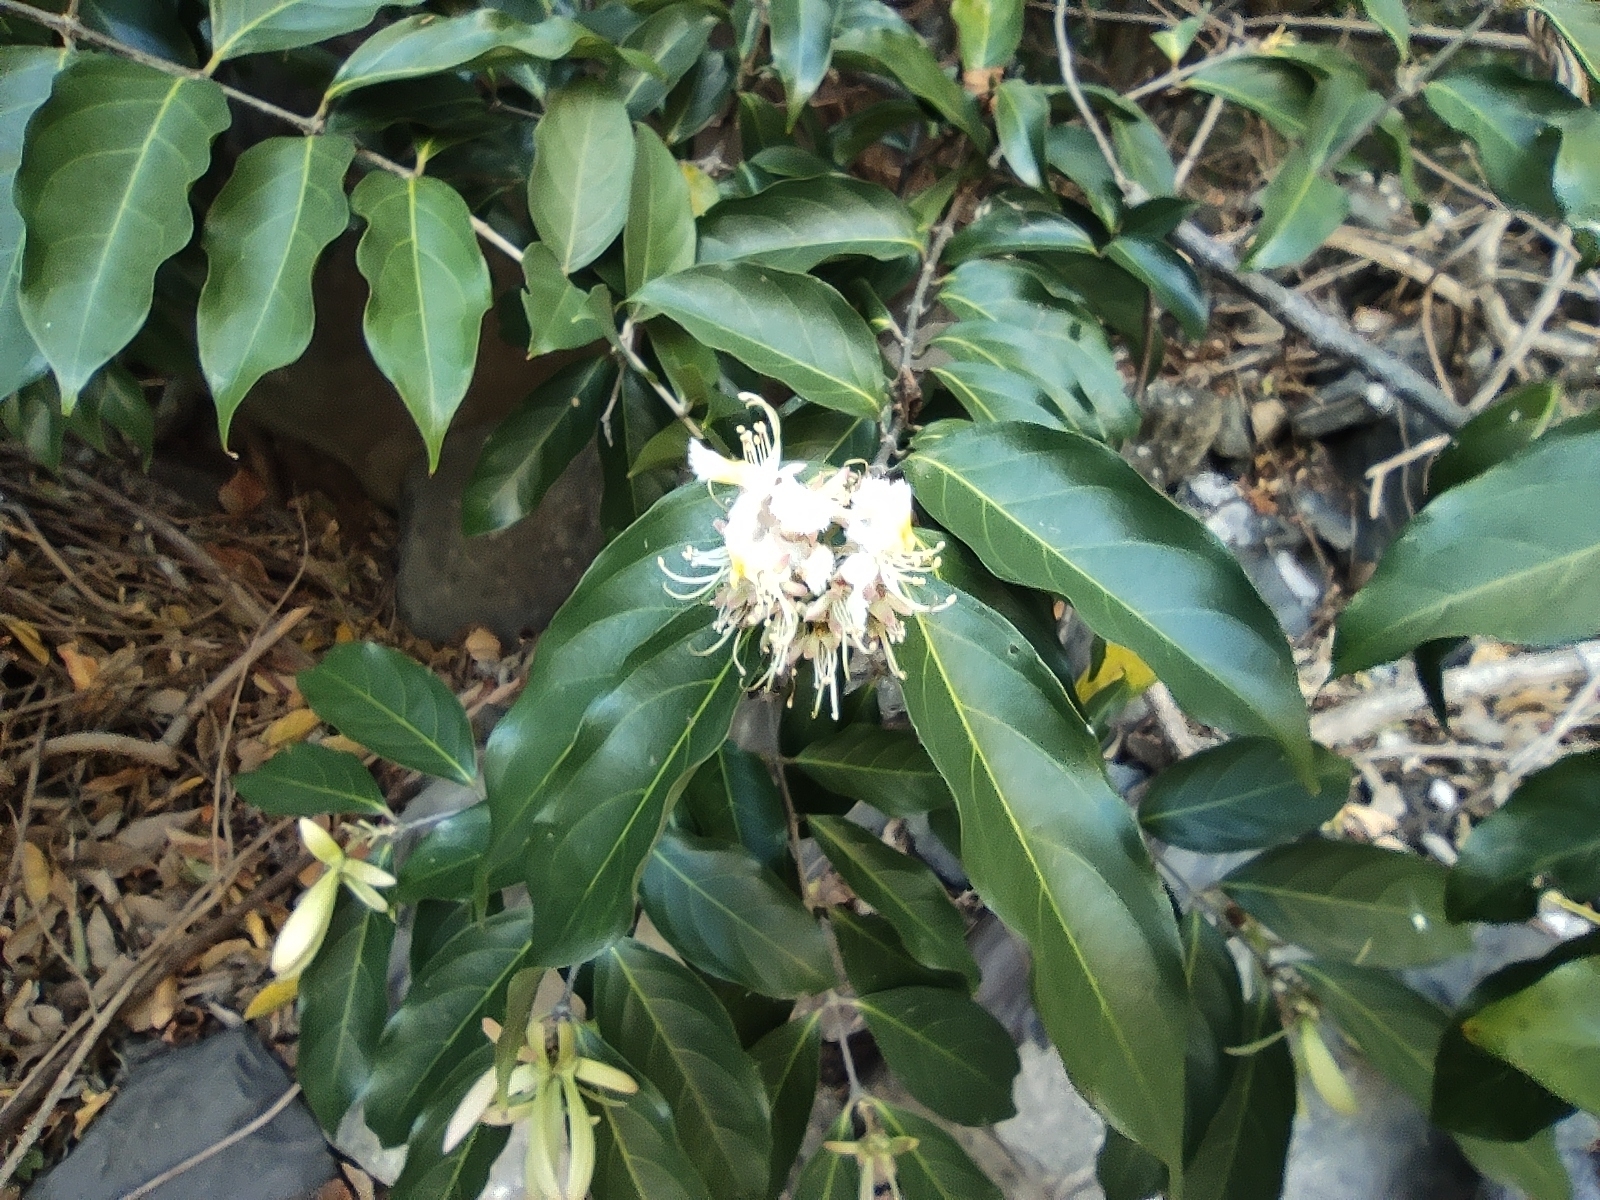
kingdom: Plantae
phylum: Tracheophyta
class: Magnoliopsida
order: Malpighiales
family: Malpighiaceae
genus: Hiptage
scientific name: Hiptage benghalensis
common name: Hiptage
